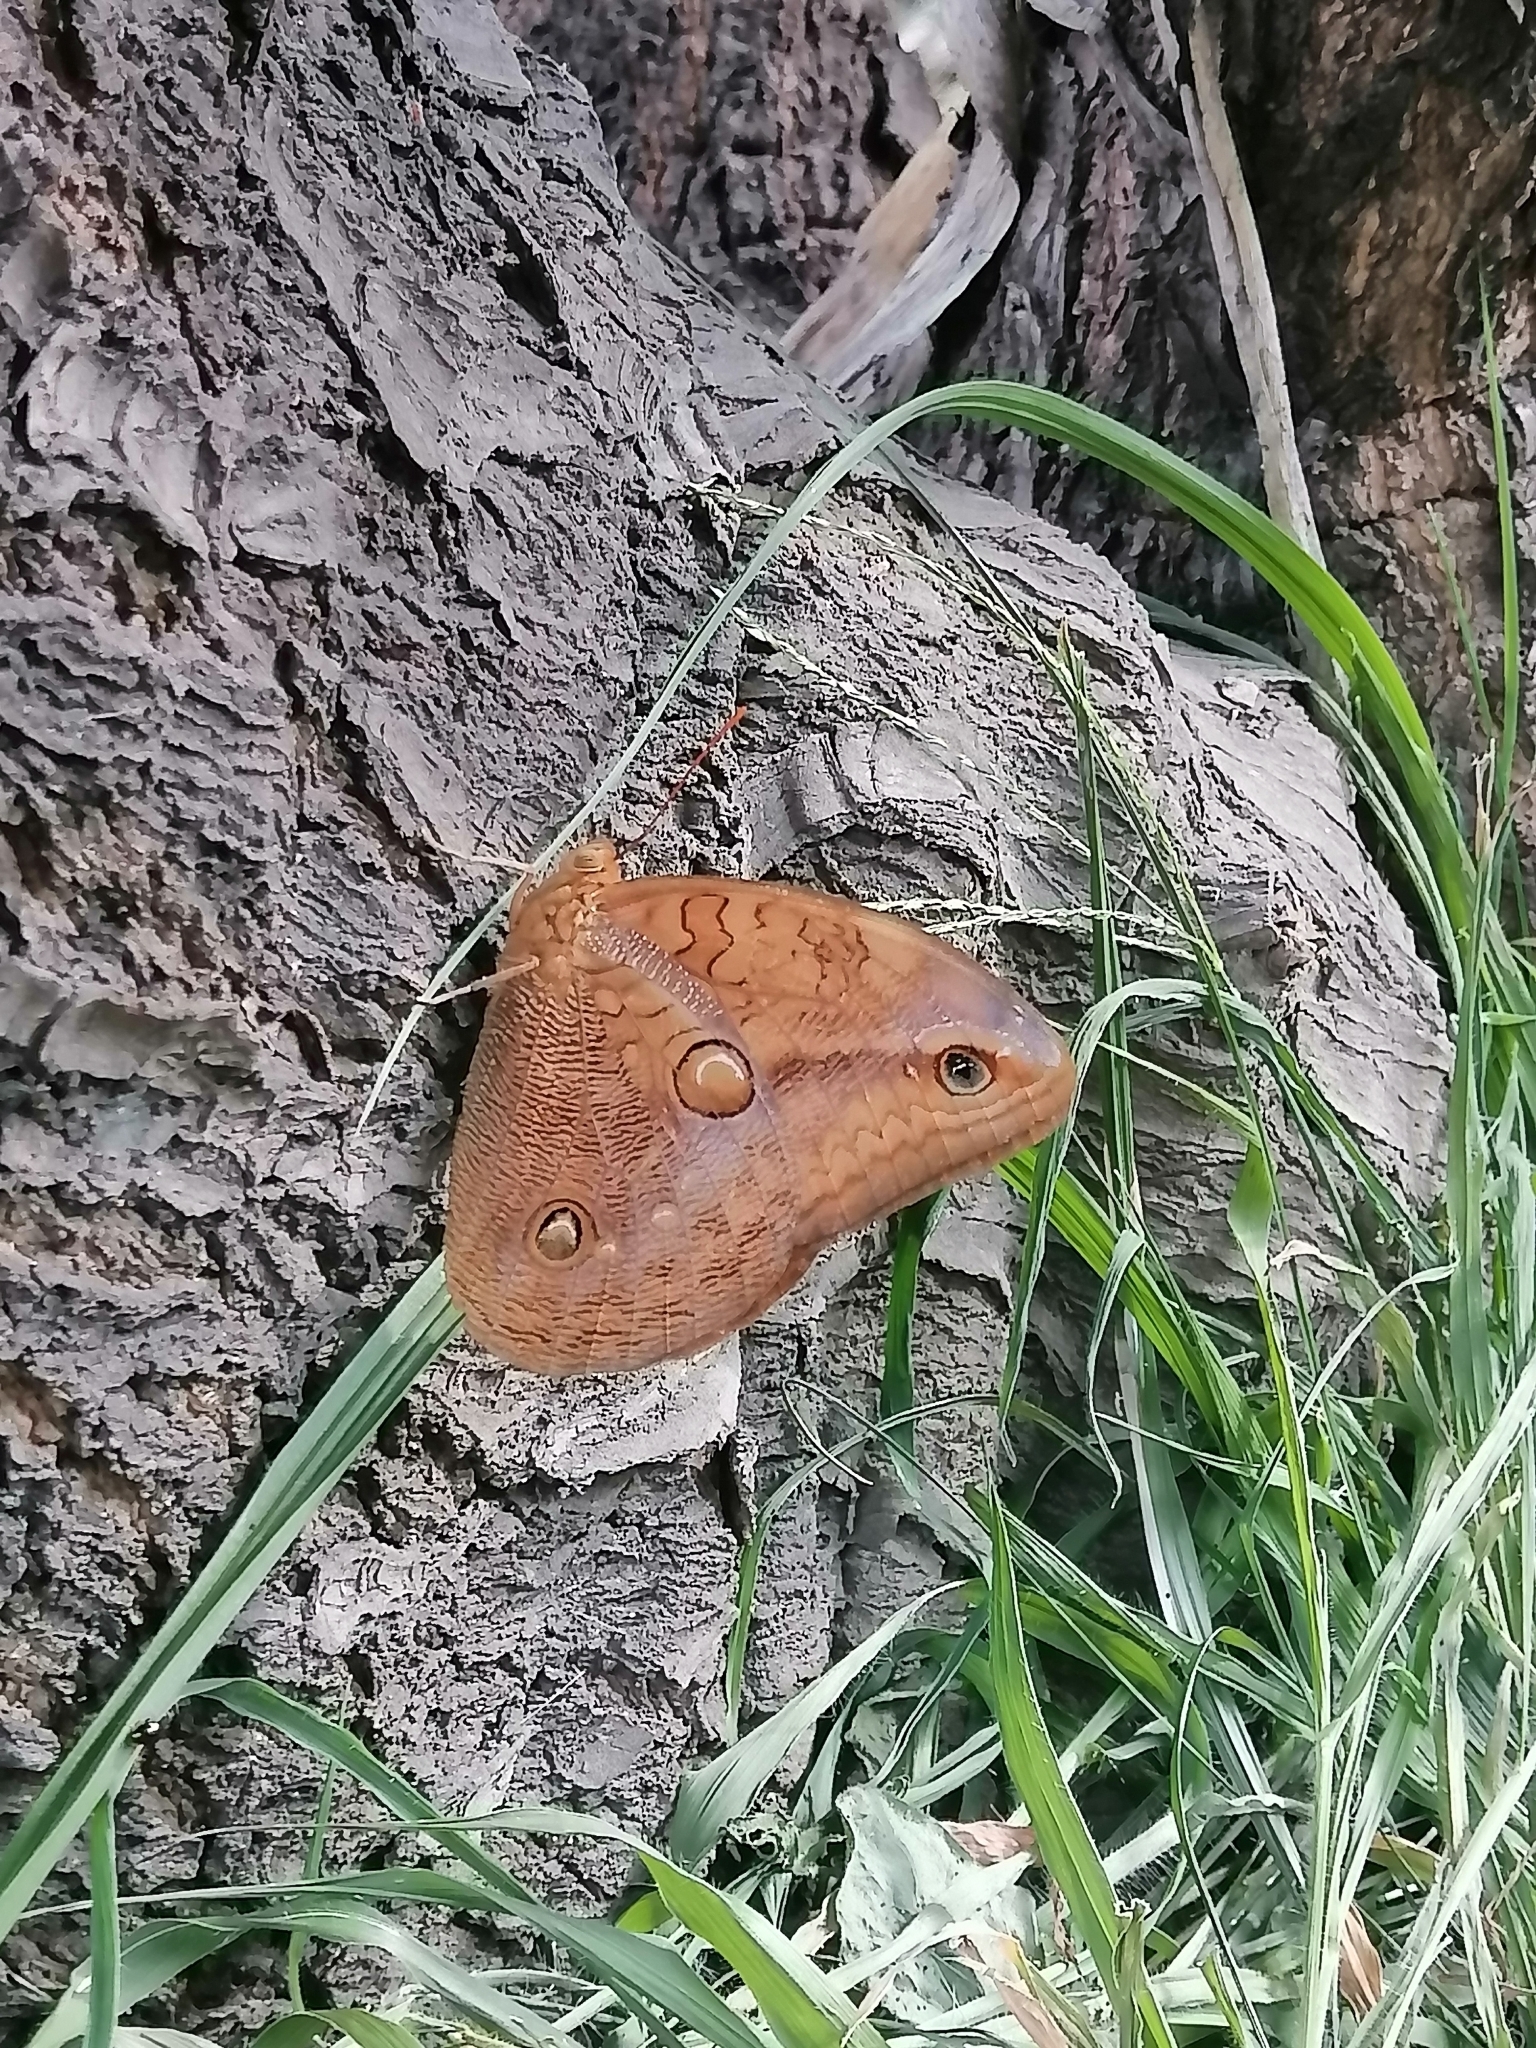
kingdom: Animalia
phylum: Arthropoda
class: Insecta
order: Lepidoptera
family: Nymphalidae
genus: Opsiphanes
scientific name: Opsiphanes boisduvalii
